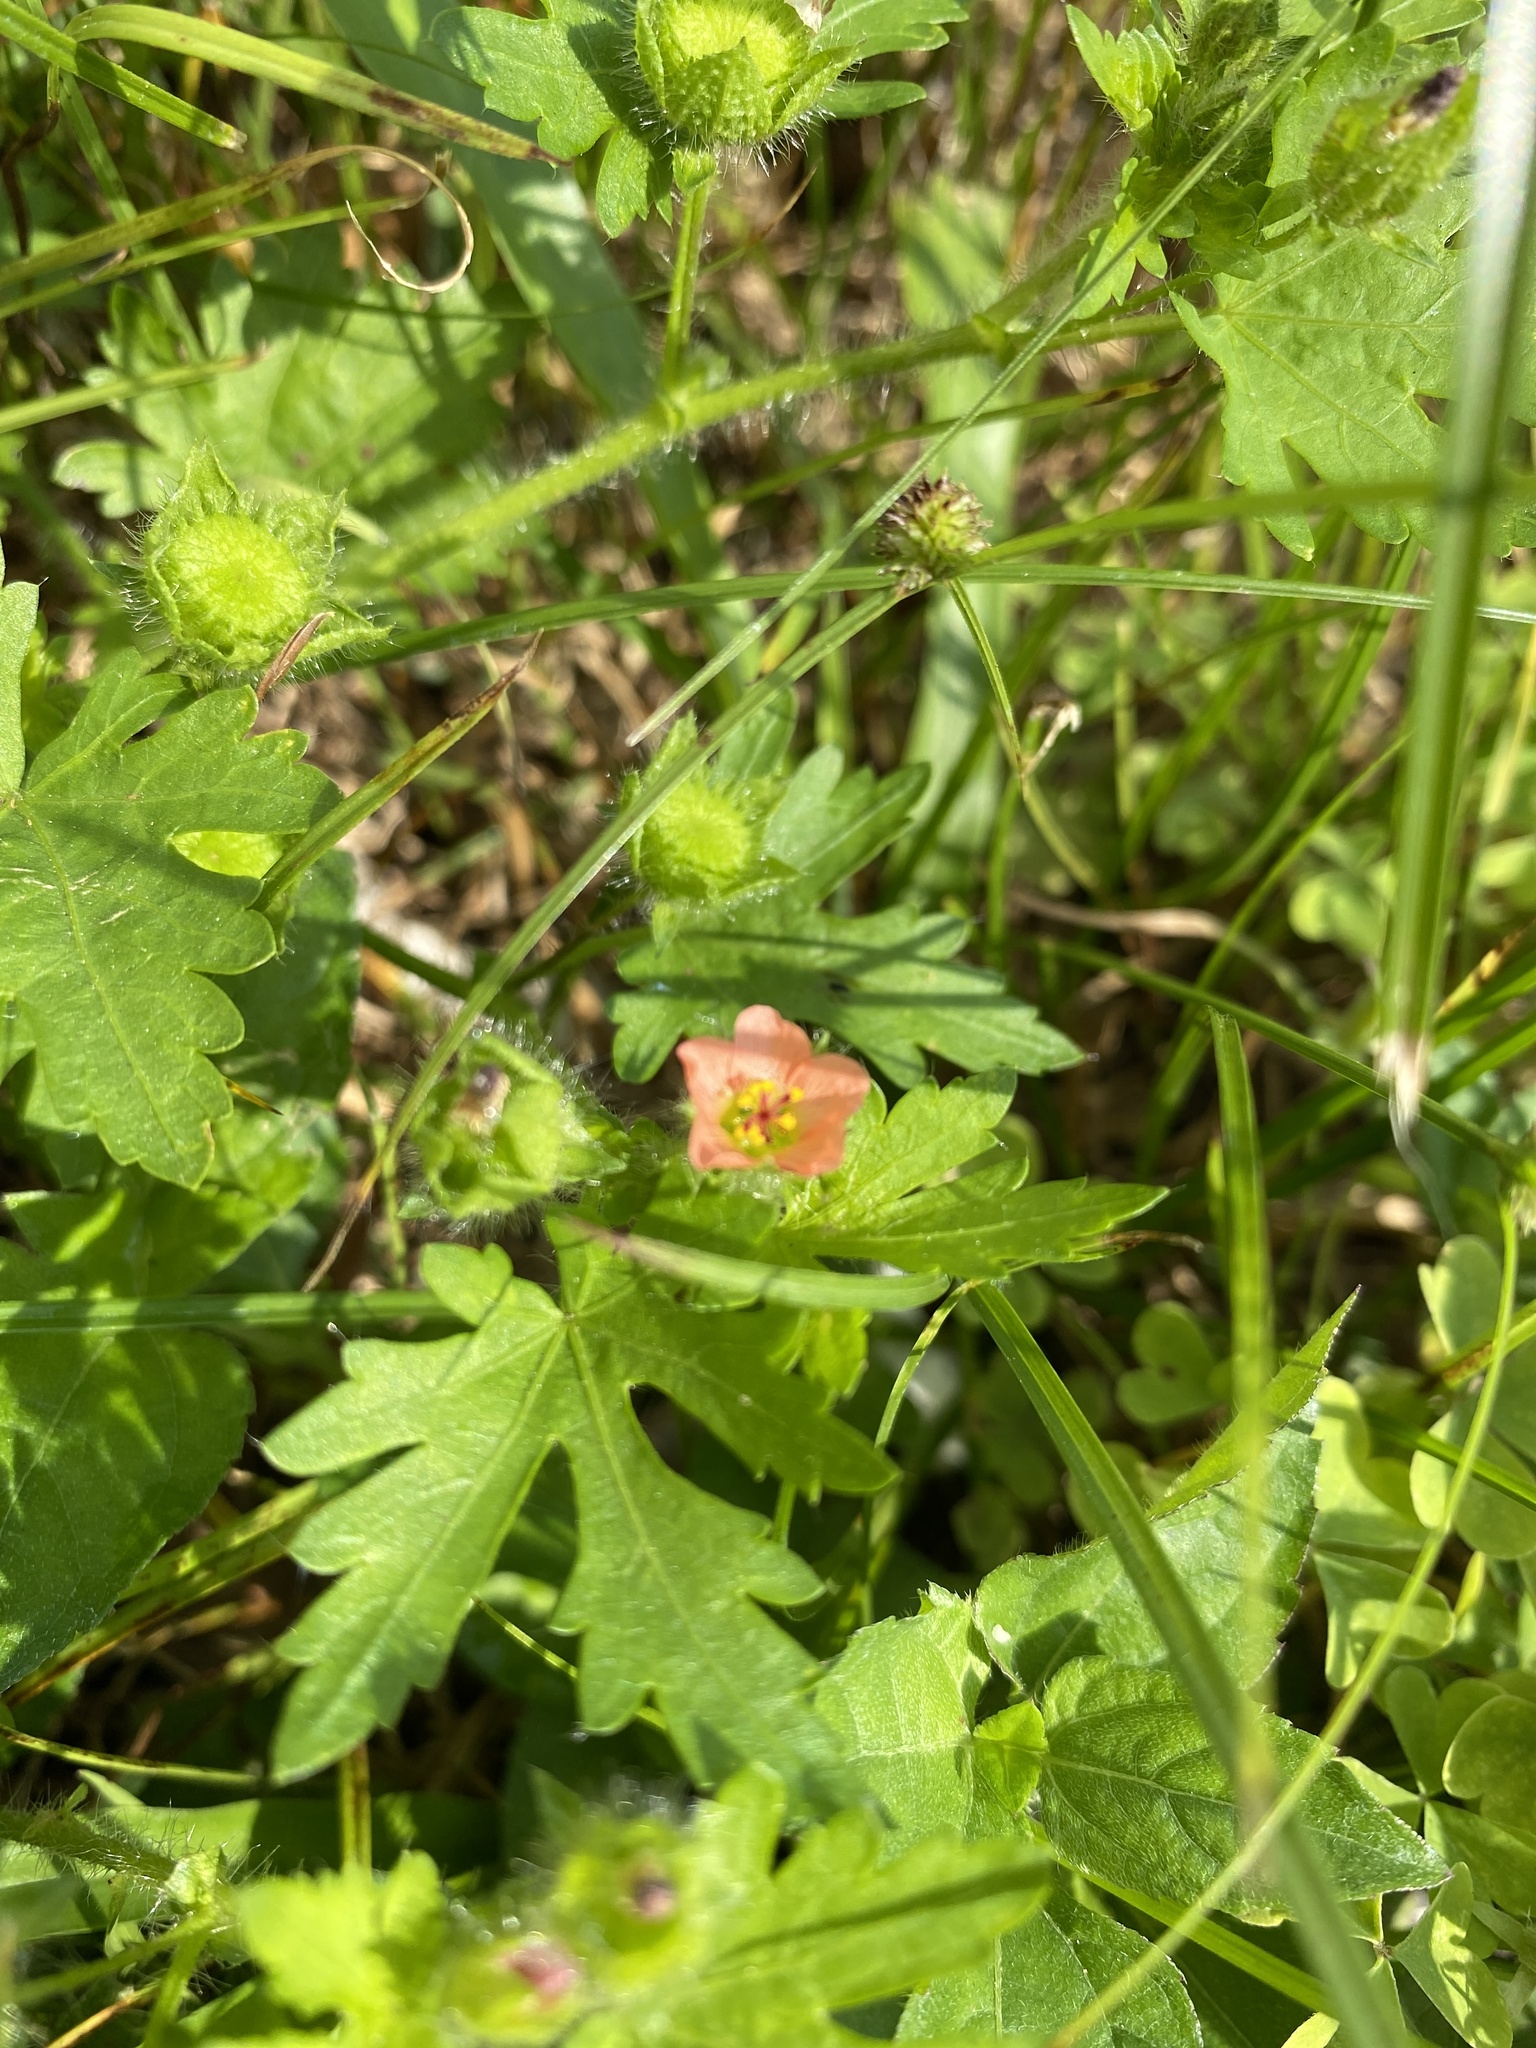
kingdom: Plantae
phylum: Tracheophyta
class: Magnoliopsida
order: Malvales
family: Malvaceae
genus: Modiola
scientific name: Modiola caroliniana
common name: Carolina bristlemallow
